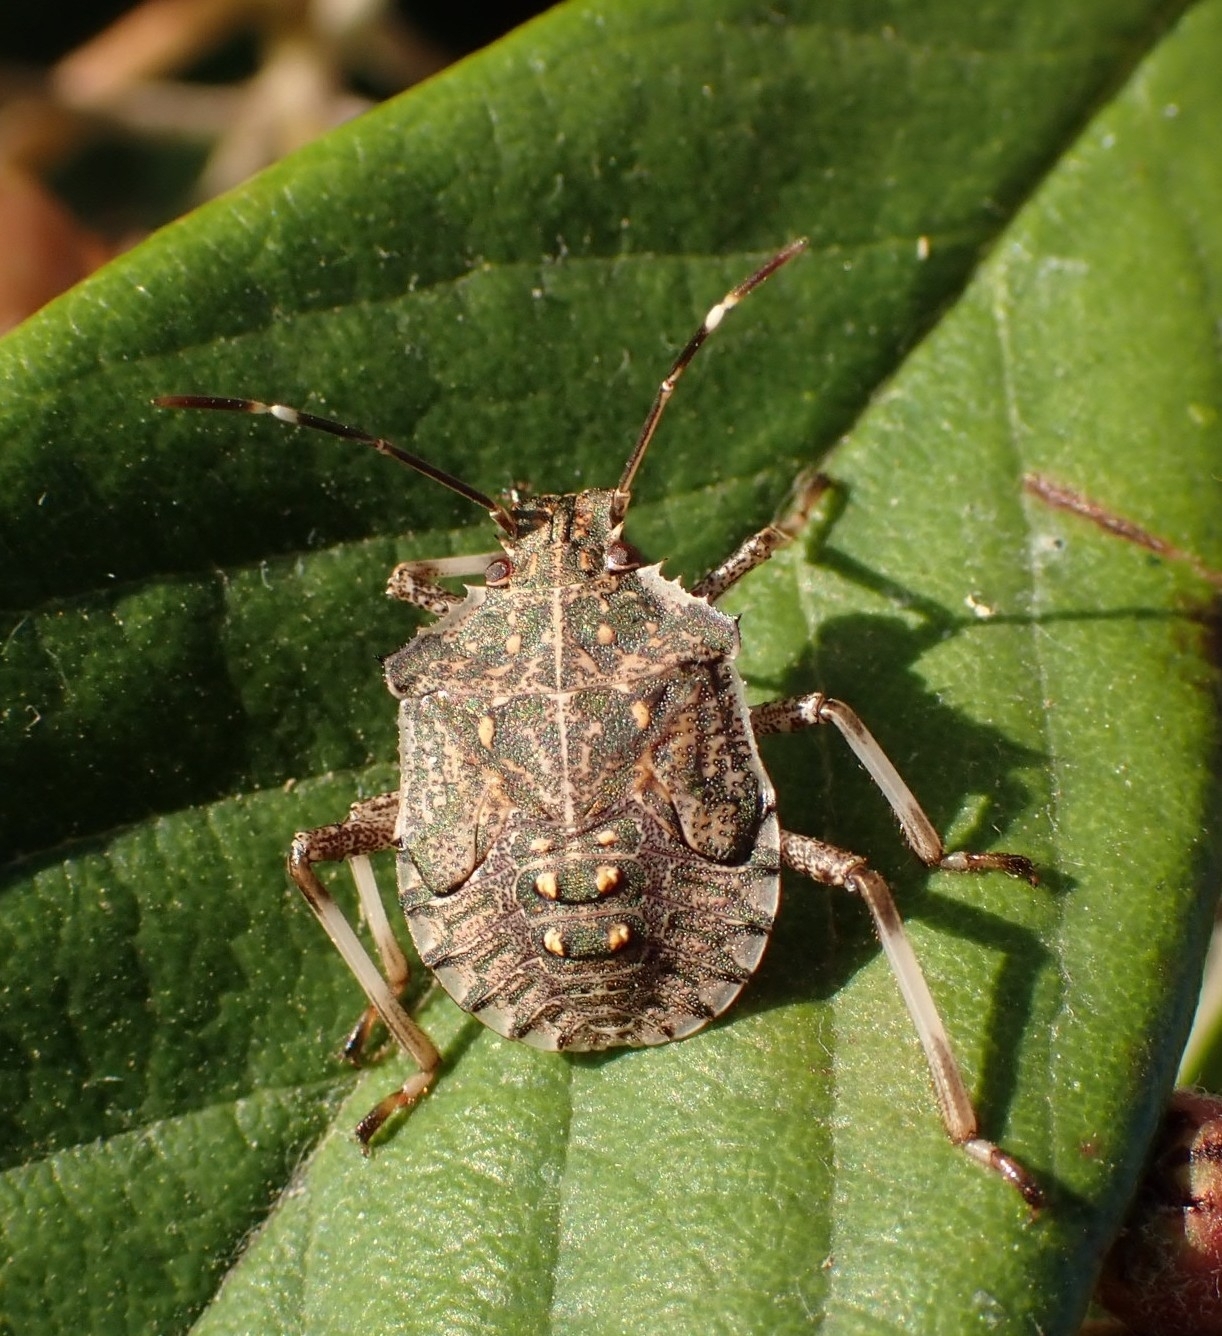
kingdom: Animalia
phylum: Arthropoda
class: Insecta
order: Hemiptera
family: Pentatomidae
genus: Halyomorpha
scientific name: Halyomorpha halys
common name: Brown marmorated stink bug
